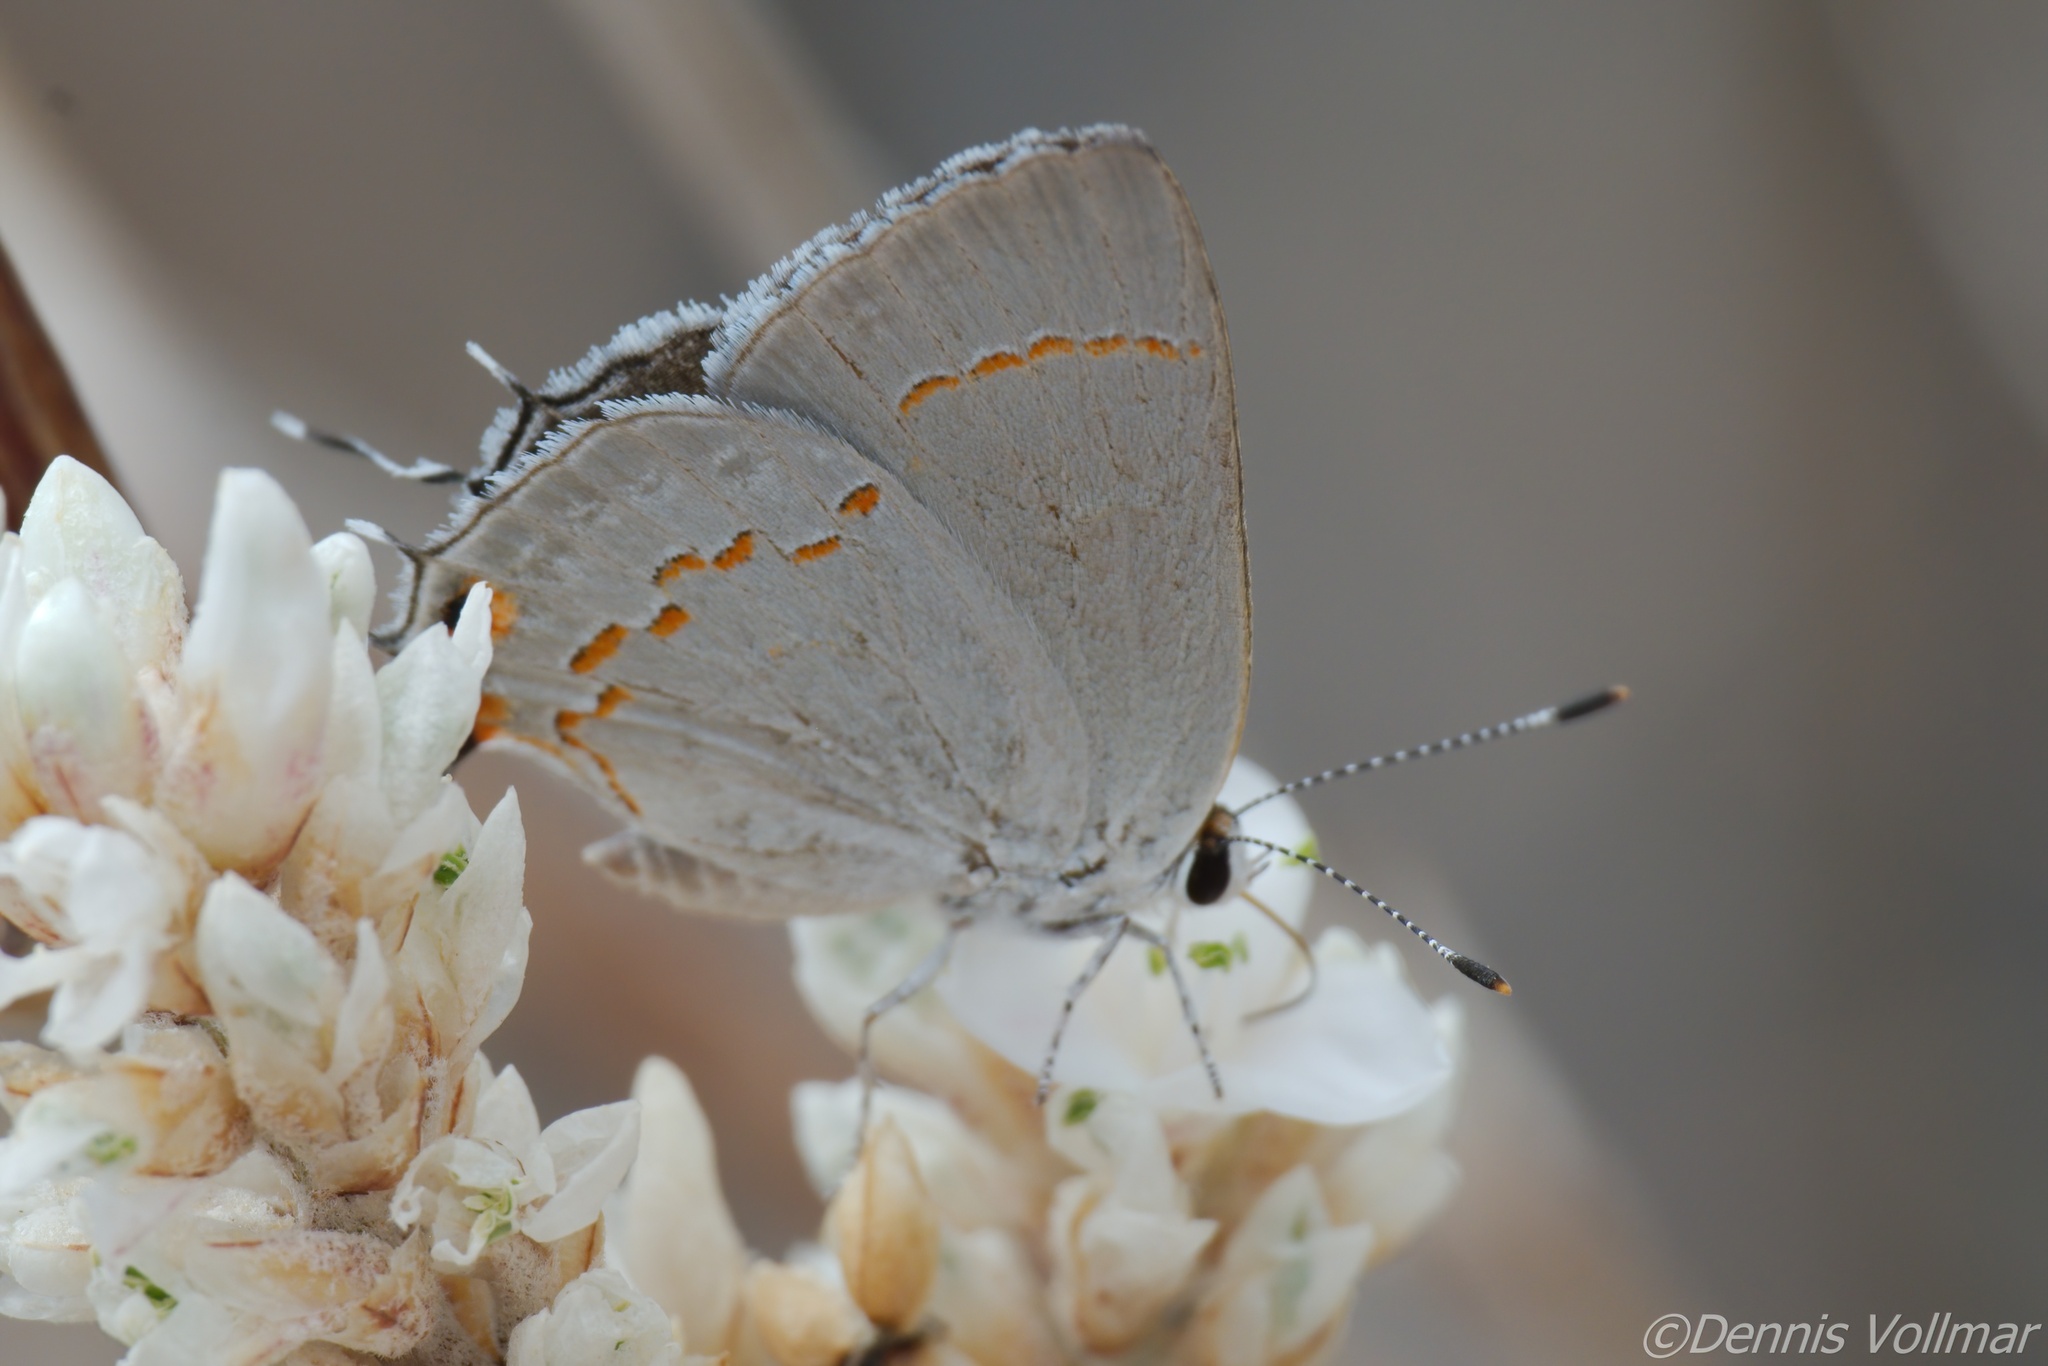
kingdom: Animalia
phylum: Arthropoda
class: Insecta
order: Lepidoptera
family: Lycaenidae
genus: Strymon
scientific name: Strymon
